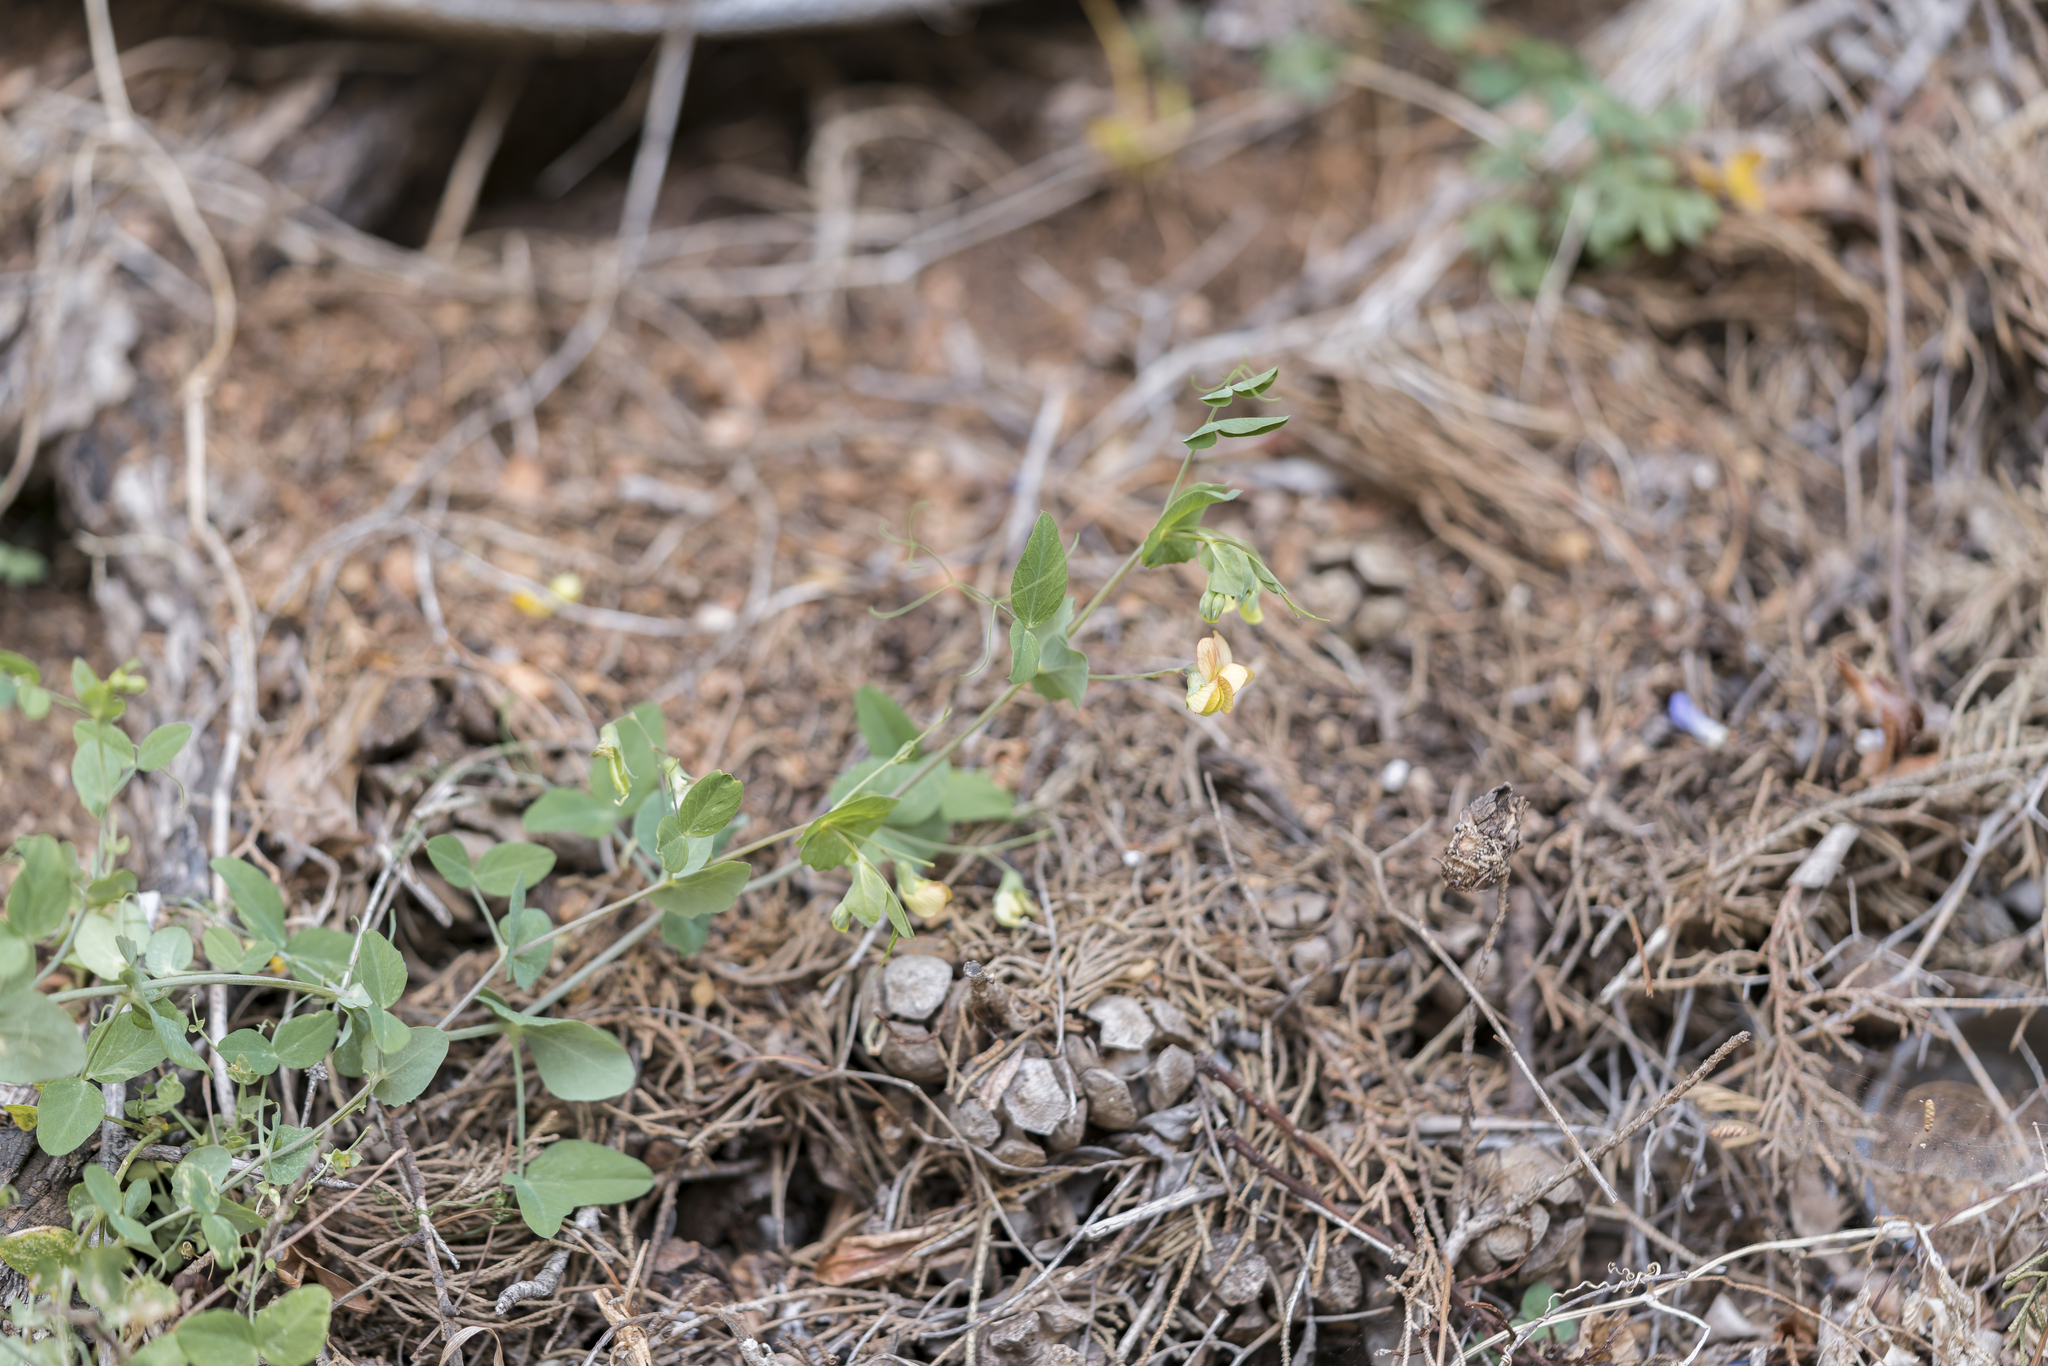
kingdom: Plantae
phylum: Tracheophyta
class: Magnoliopsida
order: Fabales
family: Fabaceae
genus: Lathyrus
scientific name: Lathyrus fulvus
